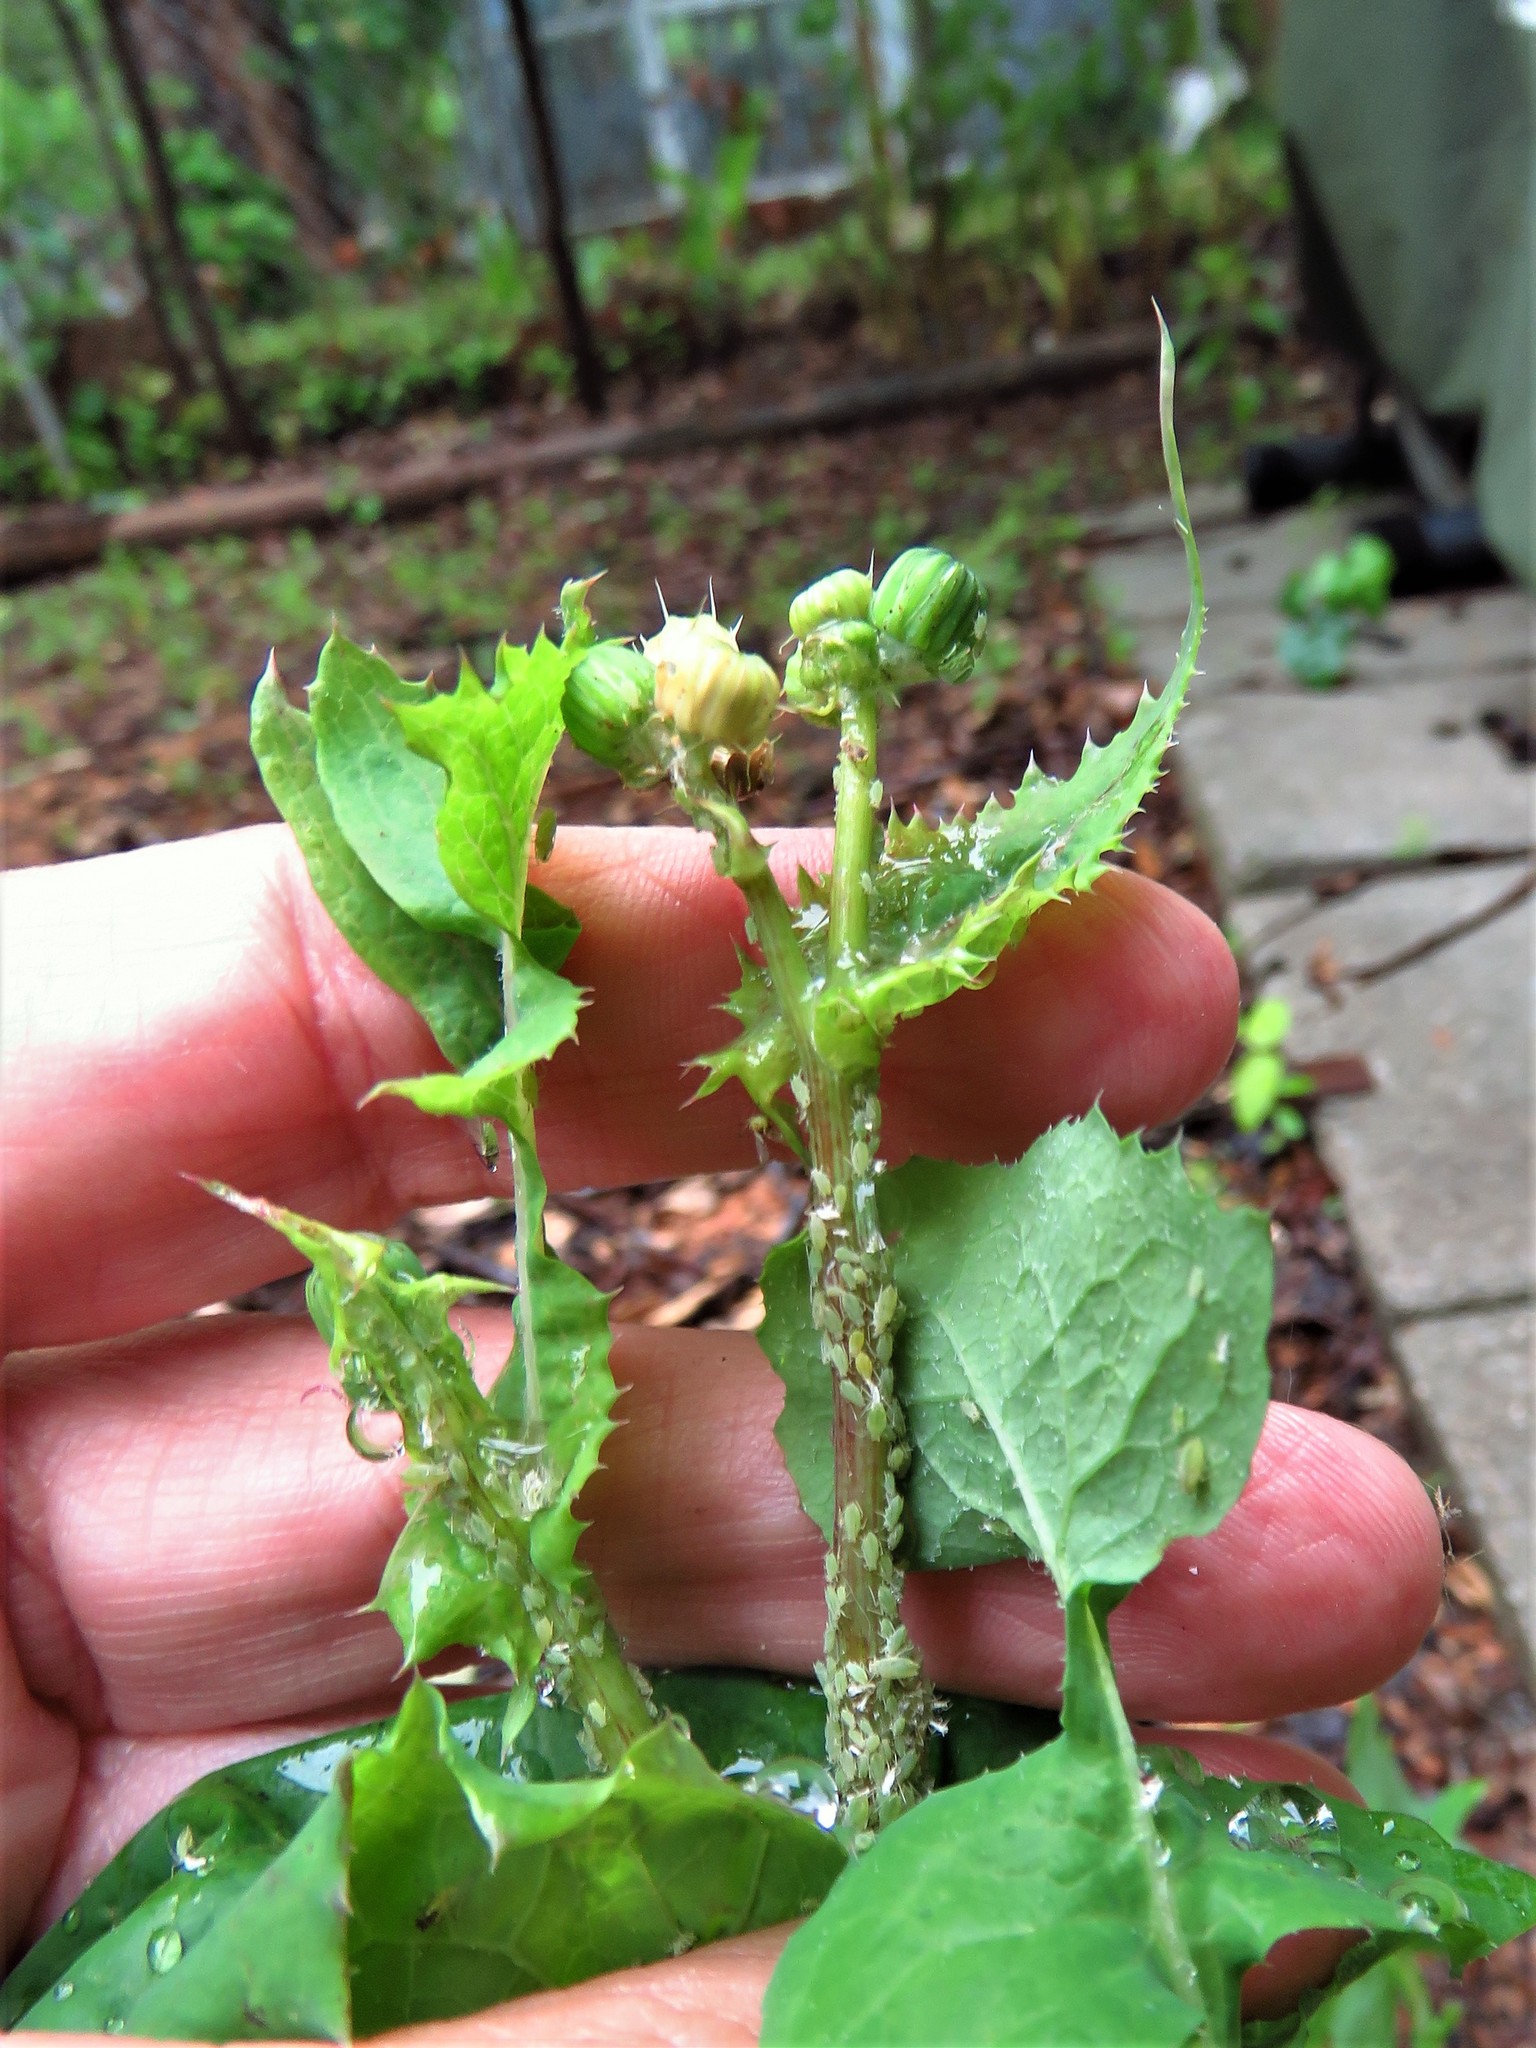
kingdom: Plantae
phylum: Tracheophyta
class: Magnoliopsida
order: Asterales
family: Asteraceae
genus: Sonchus
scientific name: Sonchus asper
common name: Prickly sow-thistle
